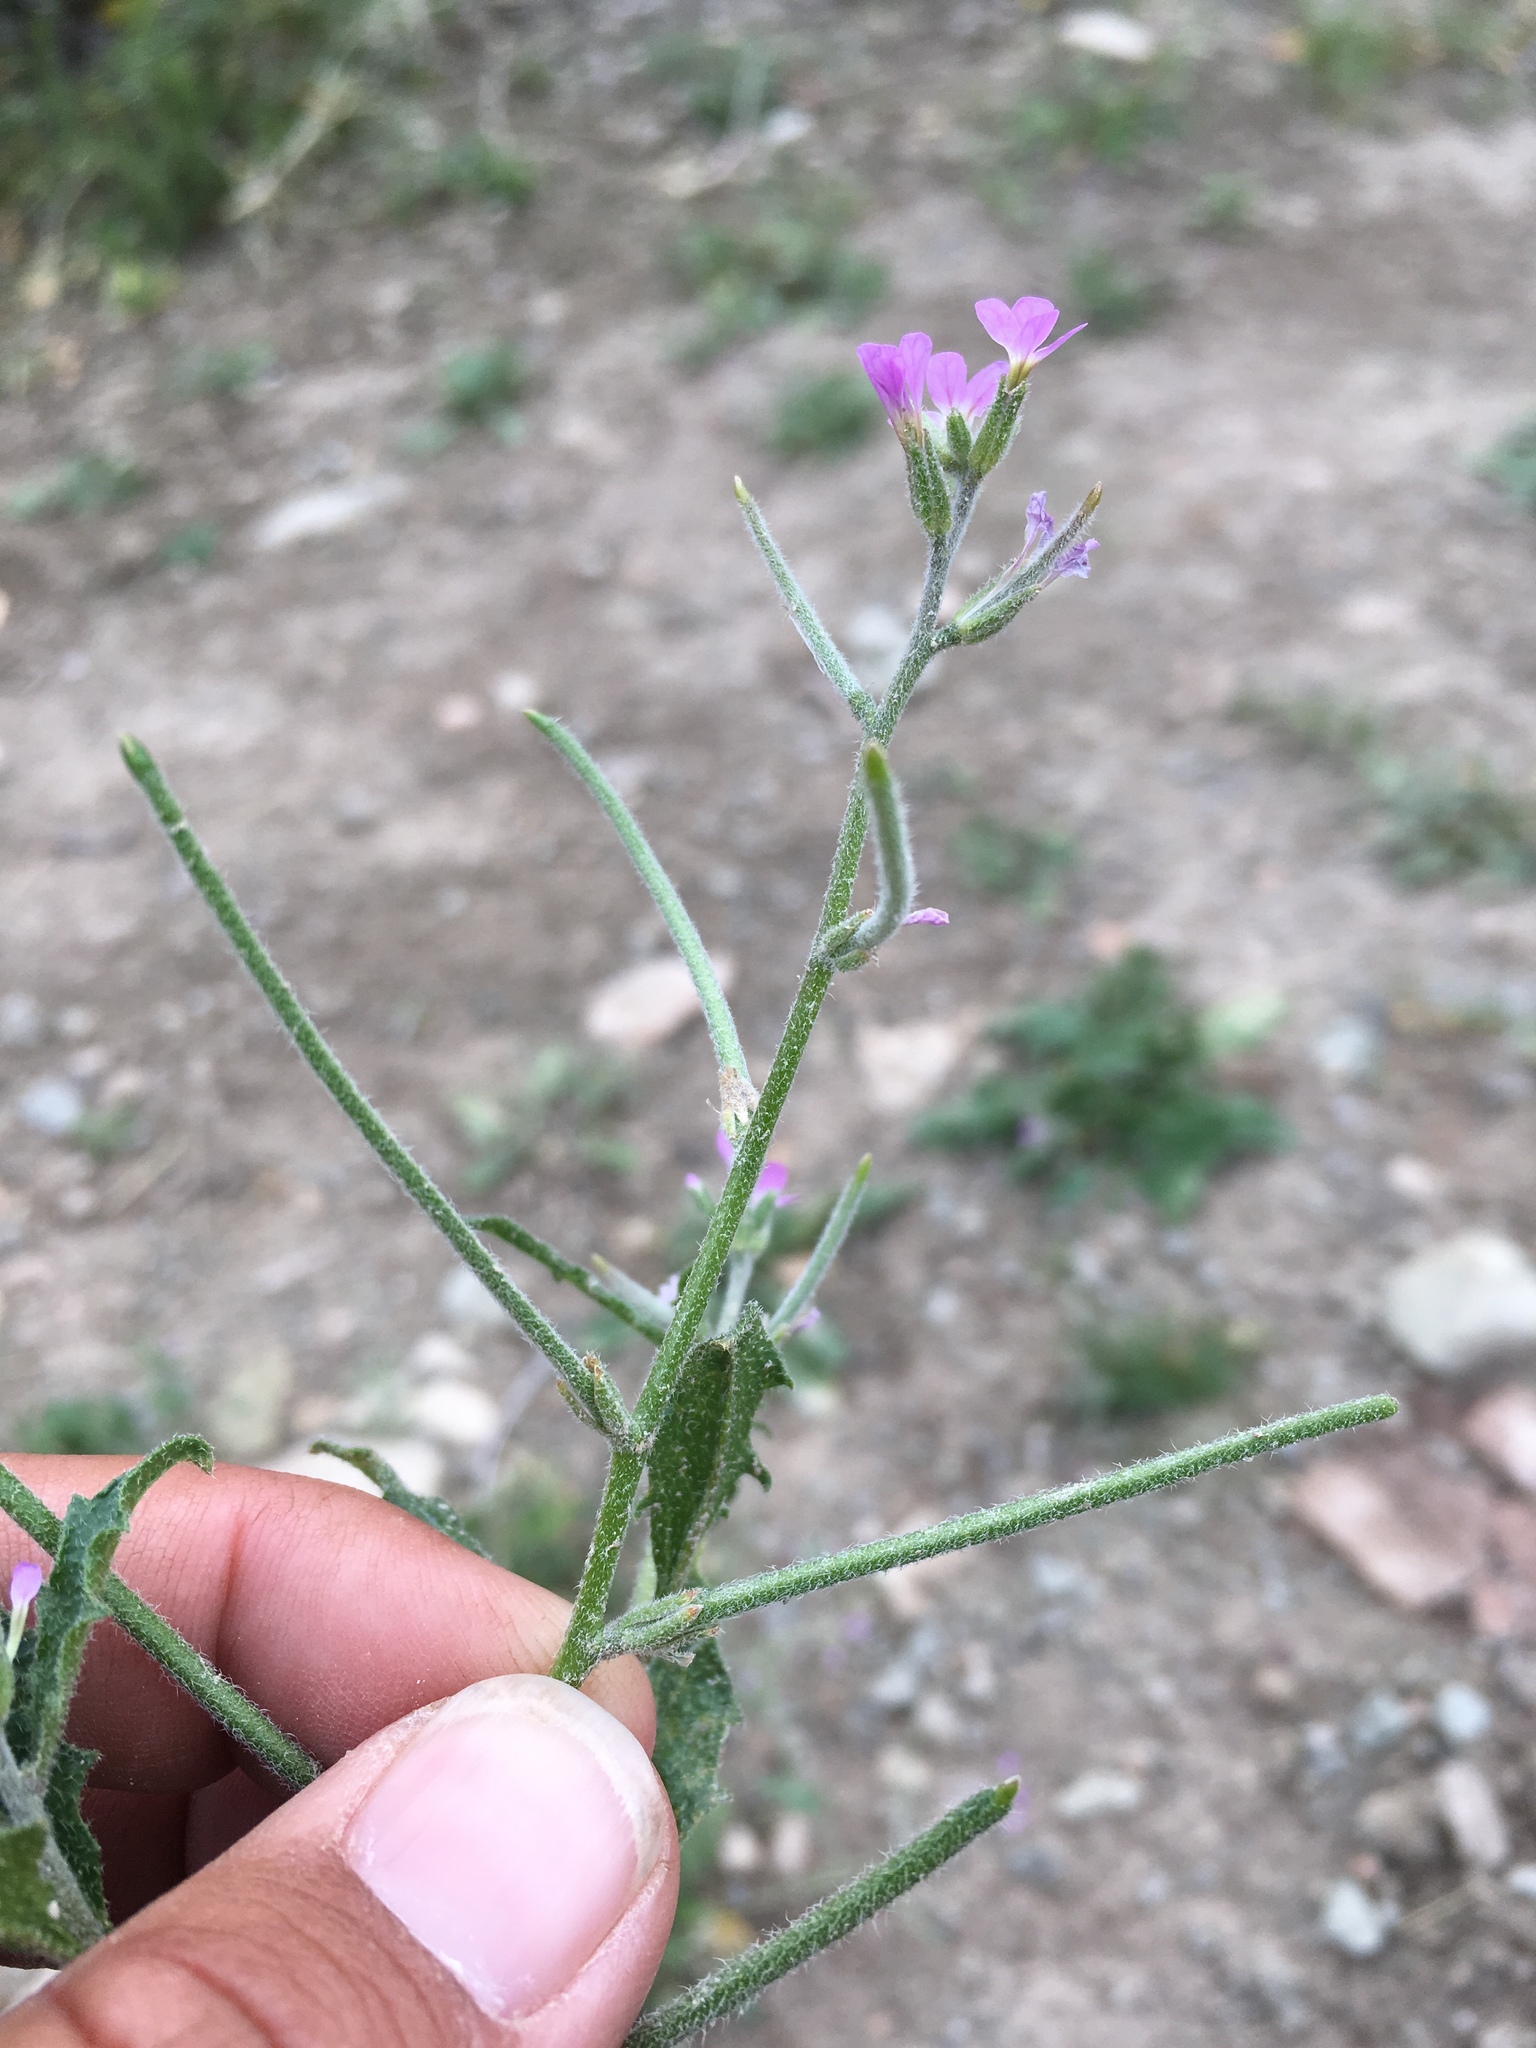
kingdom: Plantae
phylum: Tracheophyta
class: Magnoliopsida
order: Brassicales
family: Brassicaceae
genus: Strigosella
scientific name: Strigosella africana
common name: African mustard
